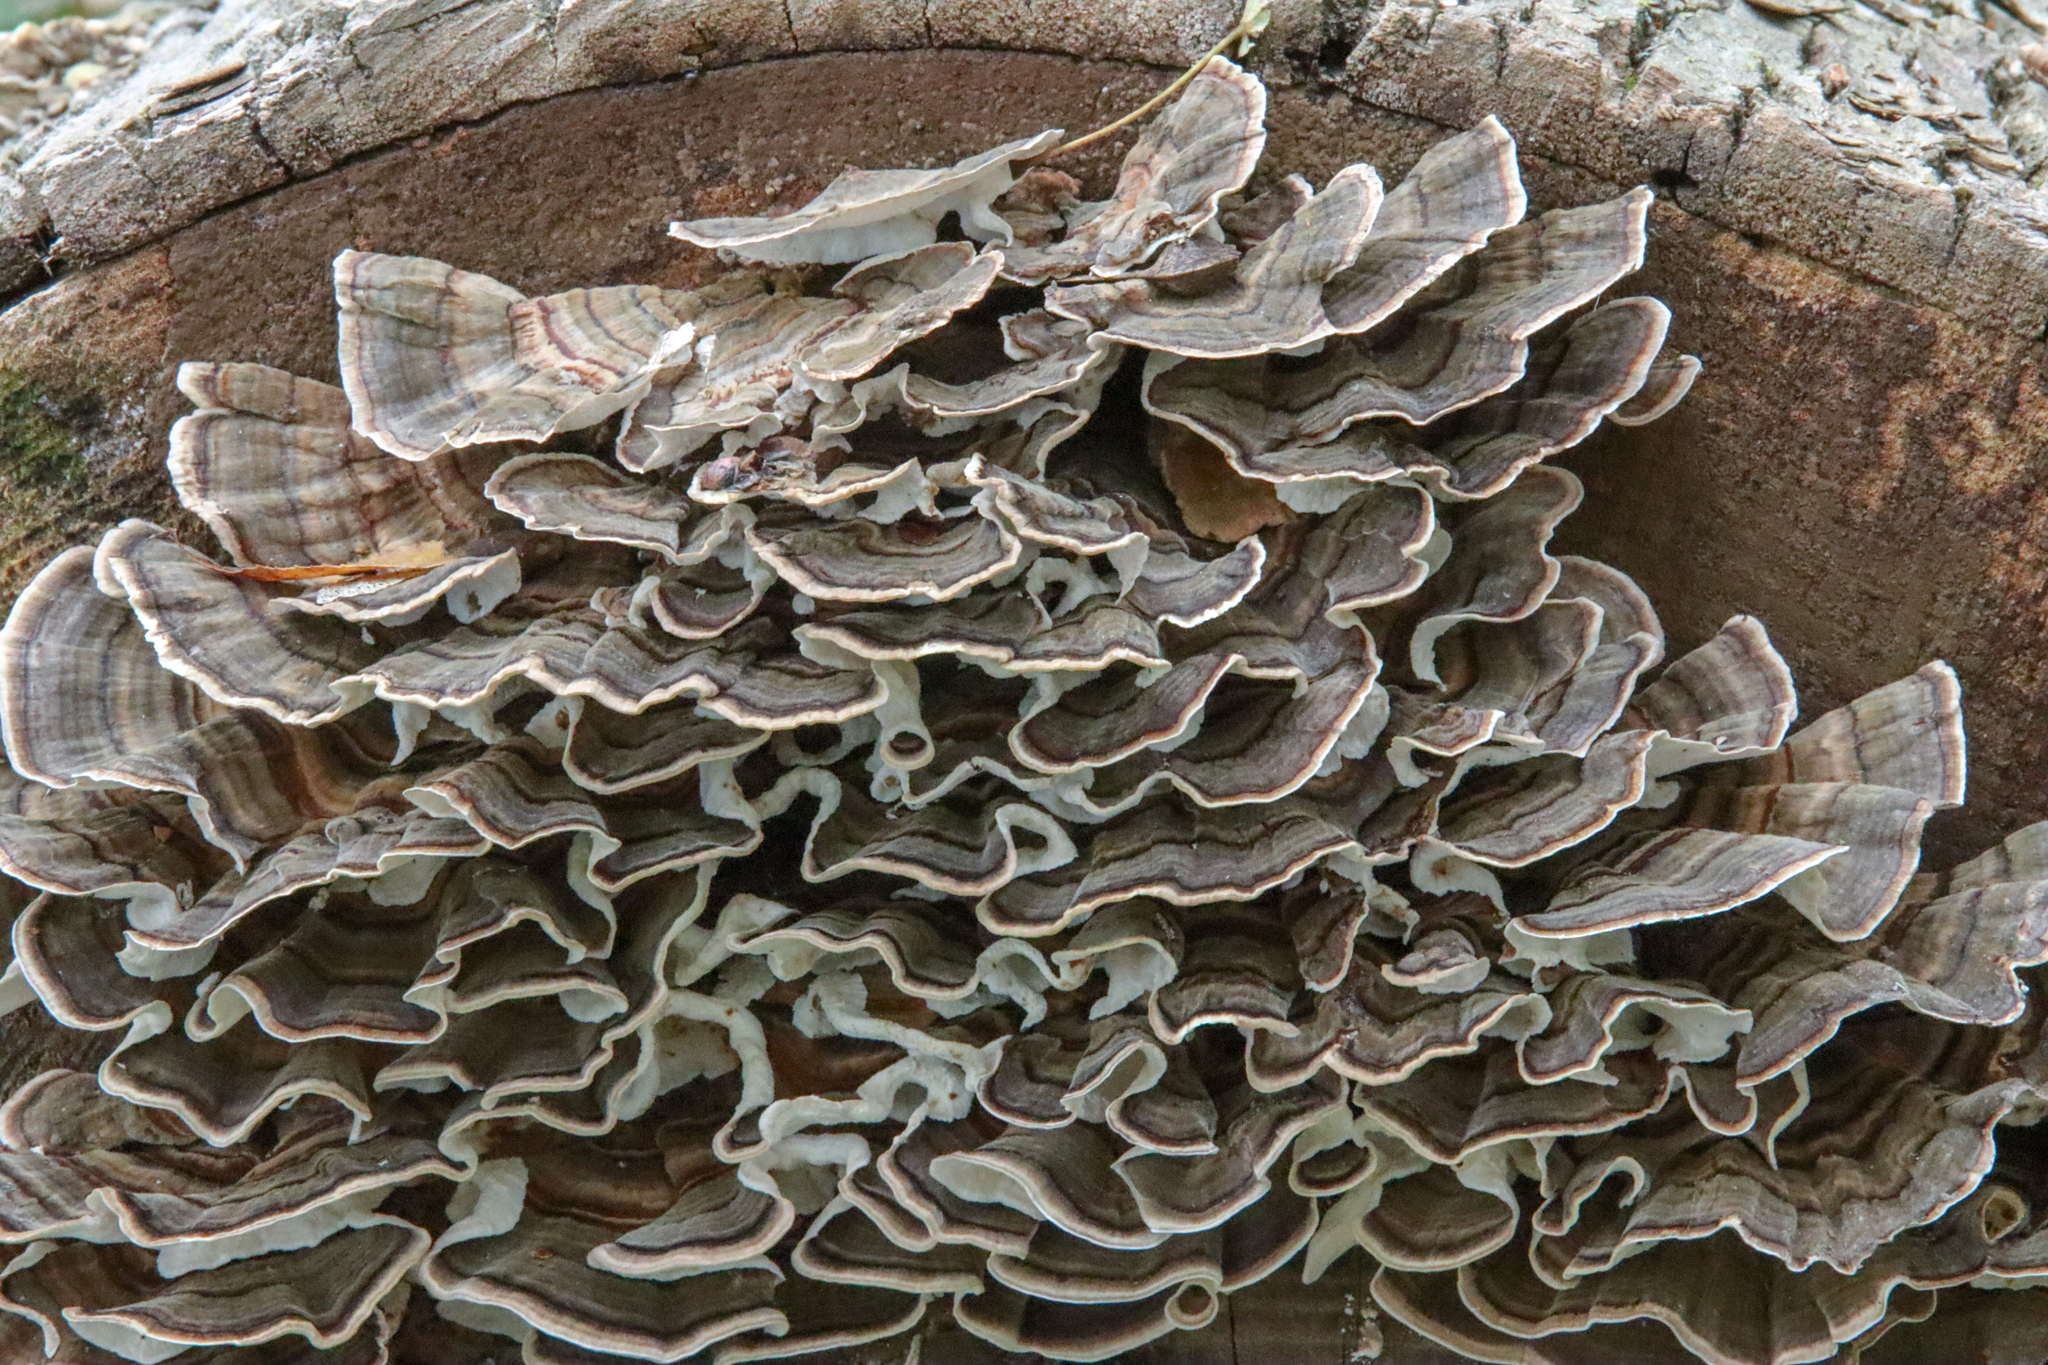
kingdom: Fungi
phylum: Basidiomycota
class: Agaricomycetes
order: Polyporales
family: Polyporaceae
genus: Trametes
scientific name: Trametes versicolor
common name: Turkeytail
